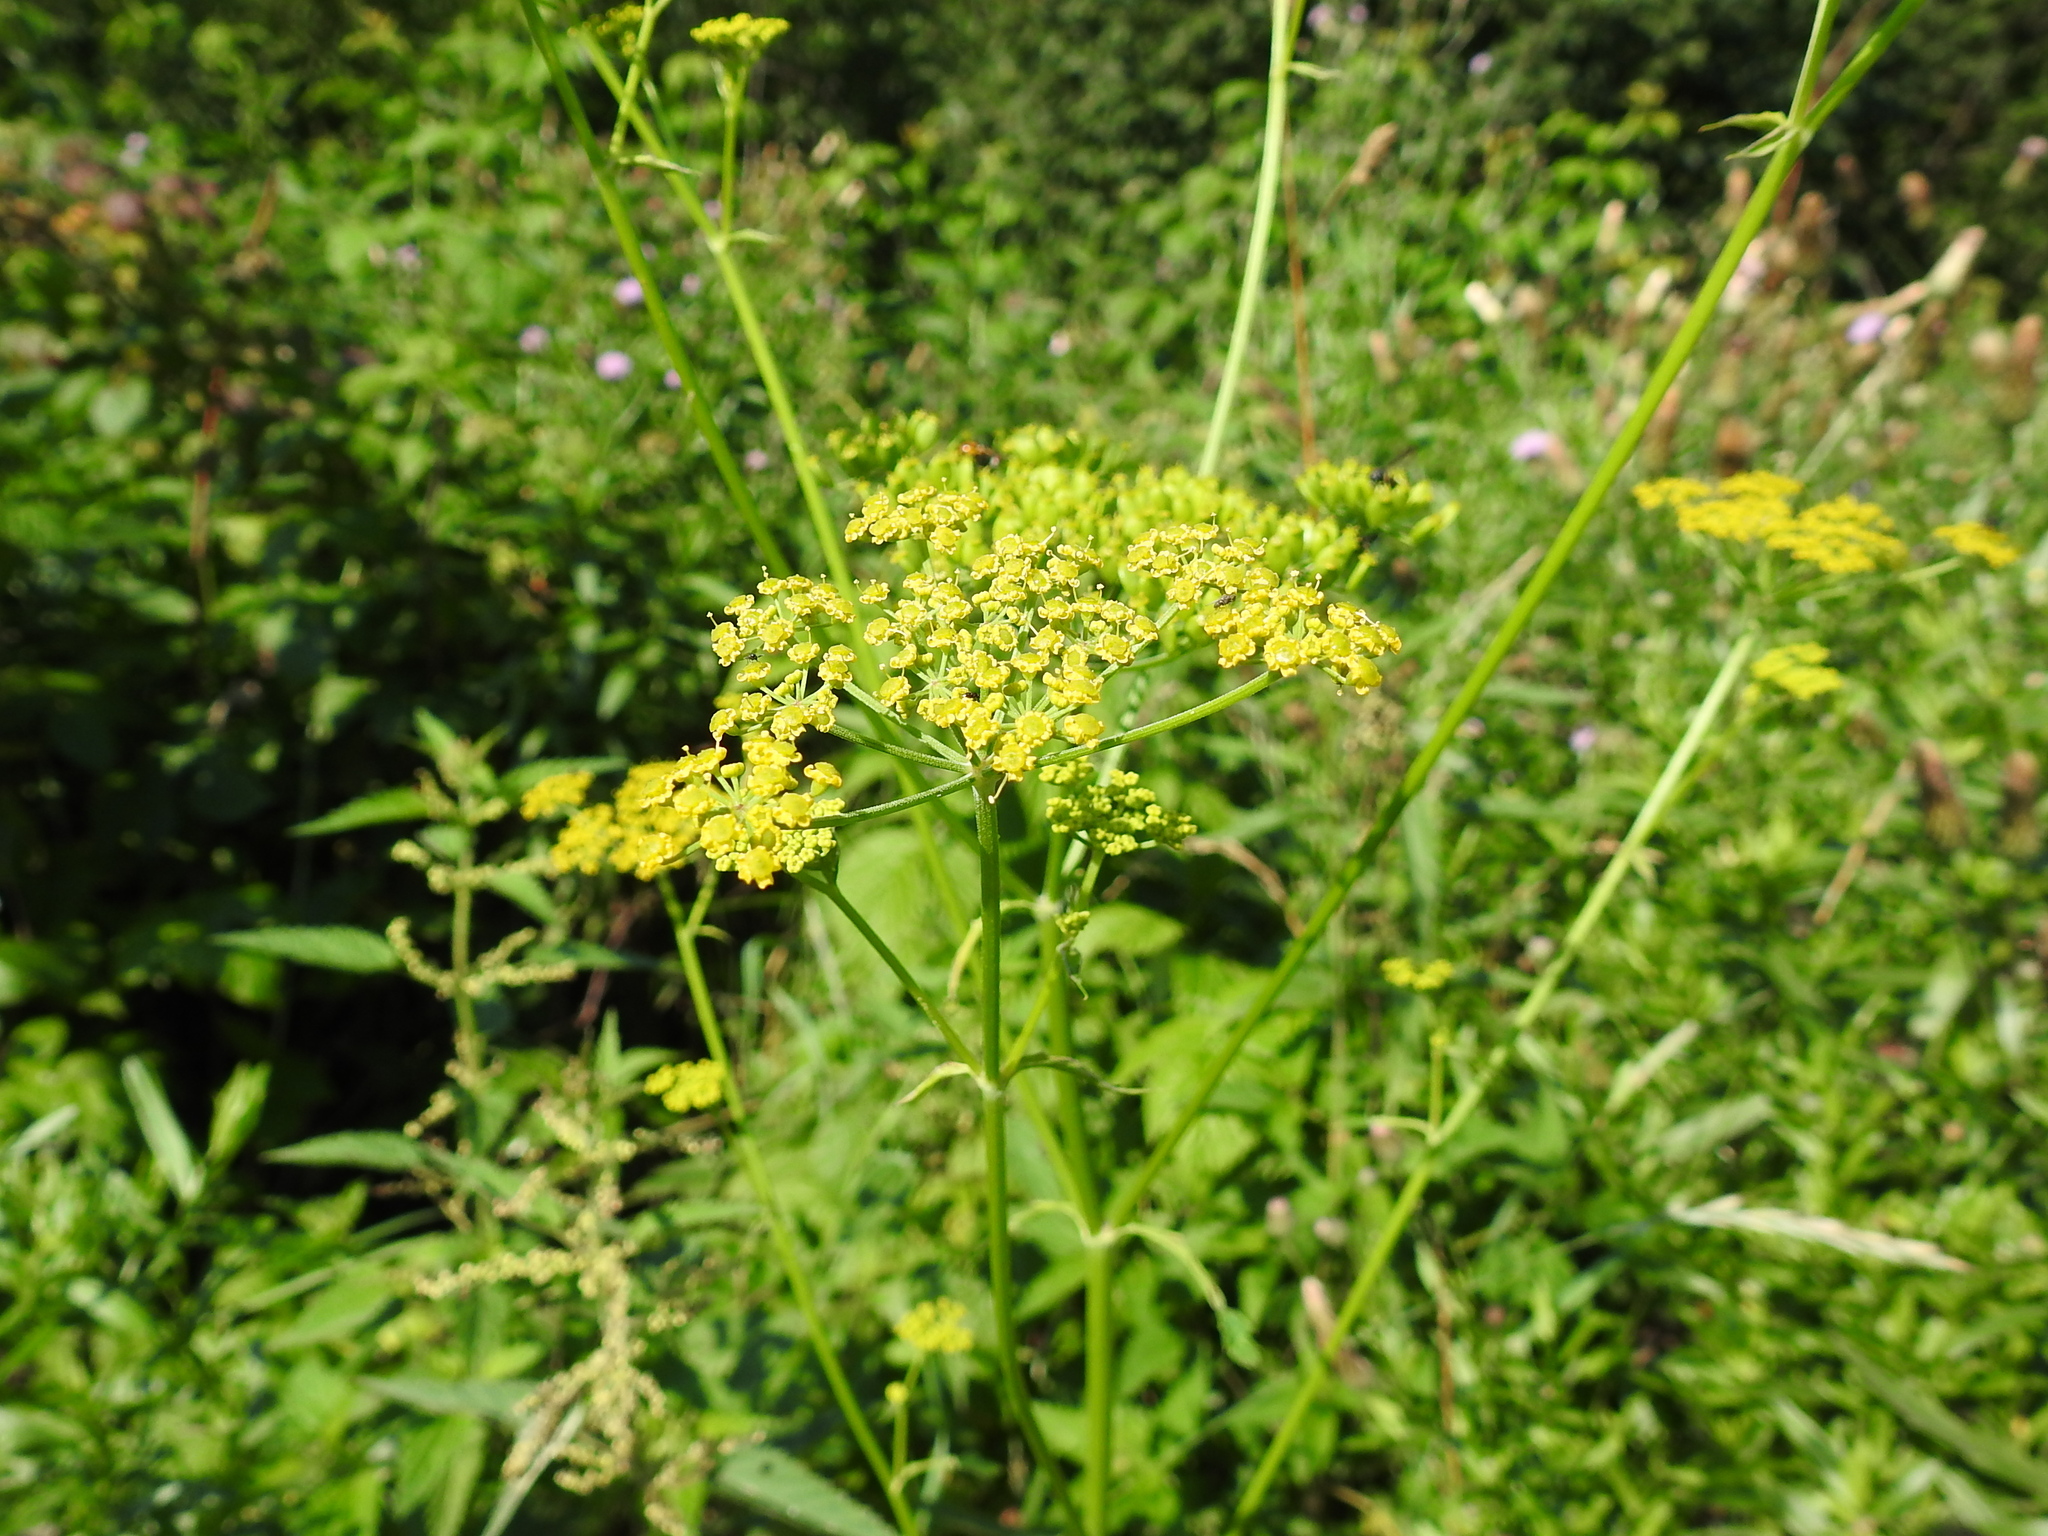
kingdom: Plantae
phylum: Tracheophyta
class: Magnoliopsida
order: Apiales
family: Apiaceae
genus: Pastinaca
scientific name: Pastinaca sativa
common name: Wild parsnip
